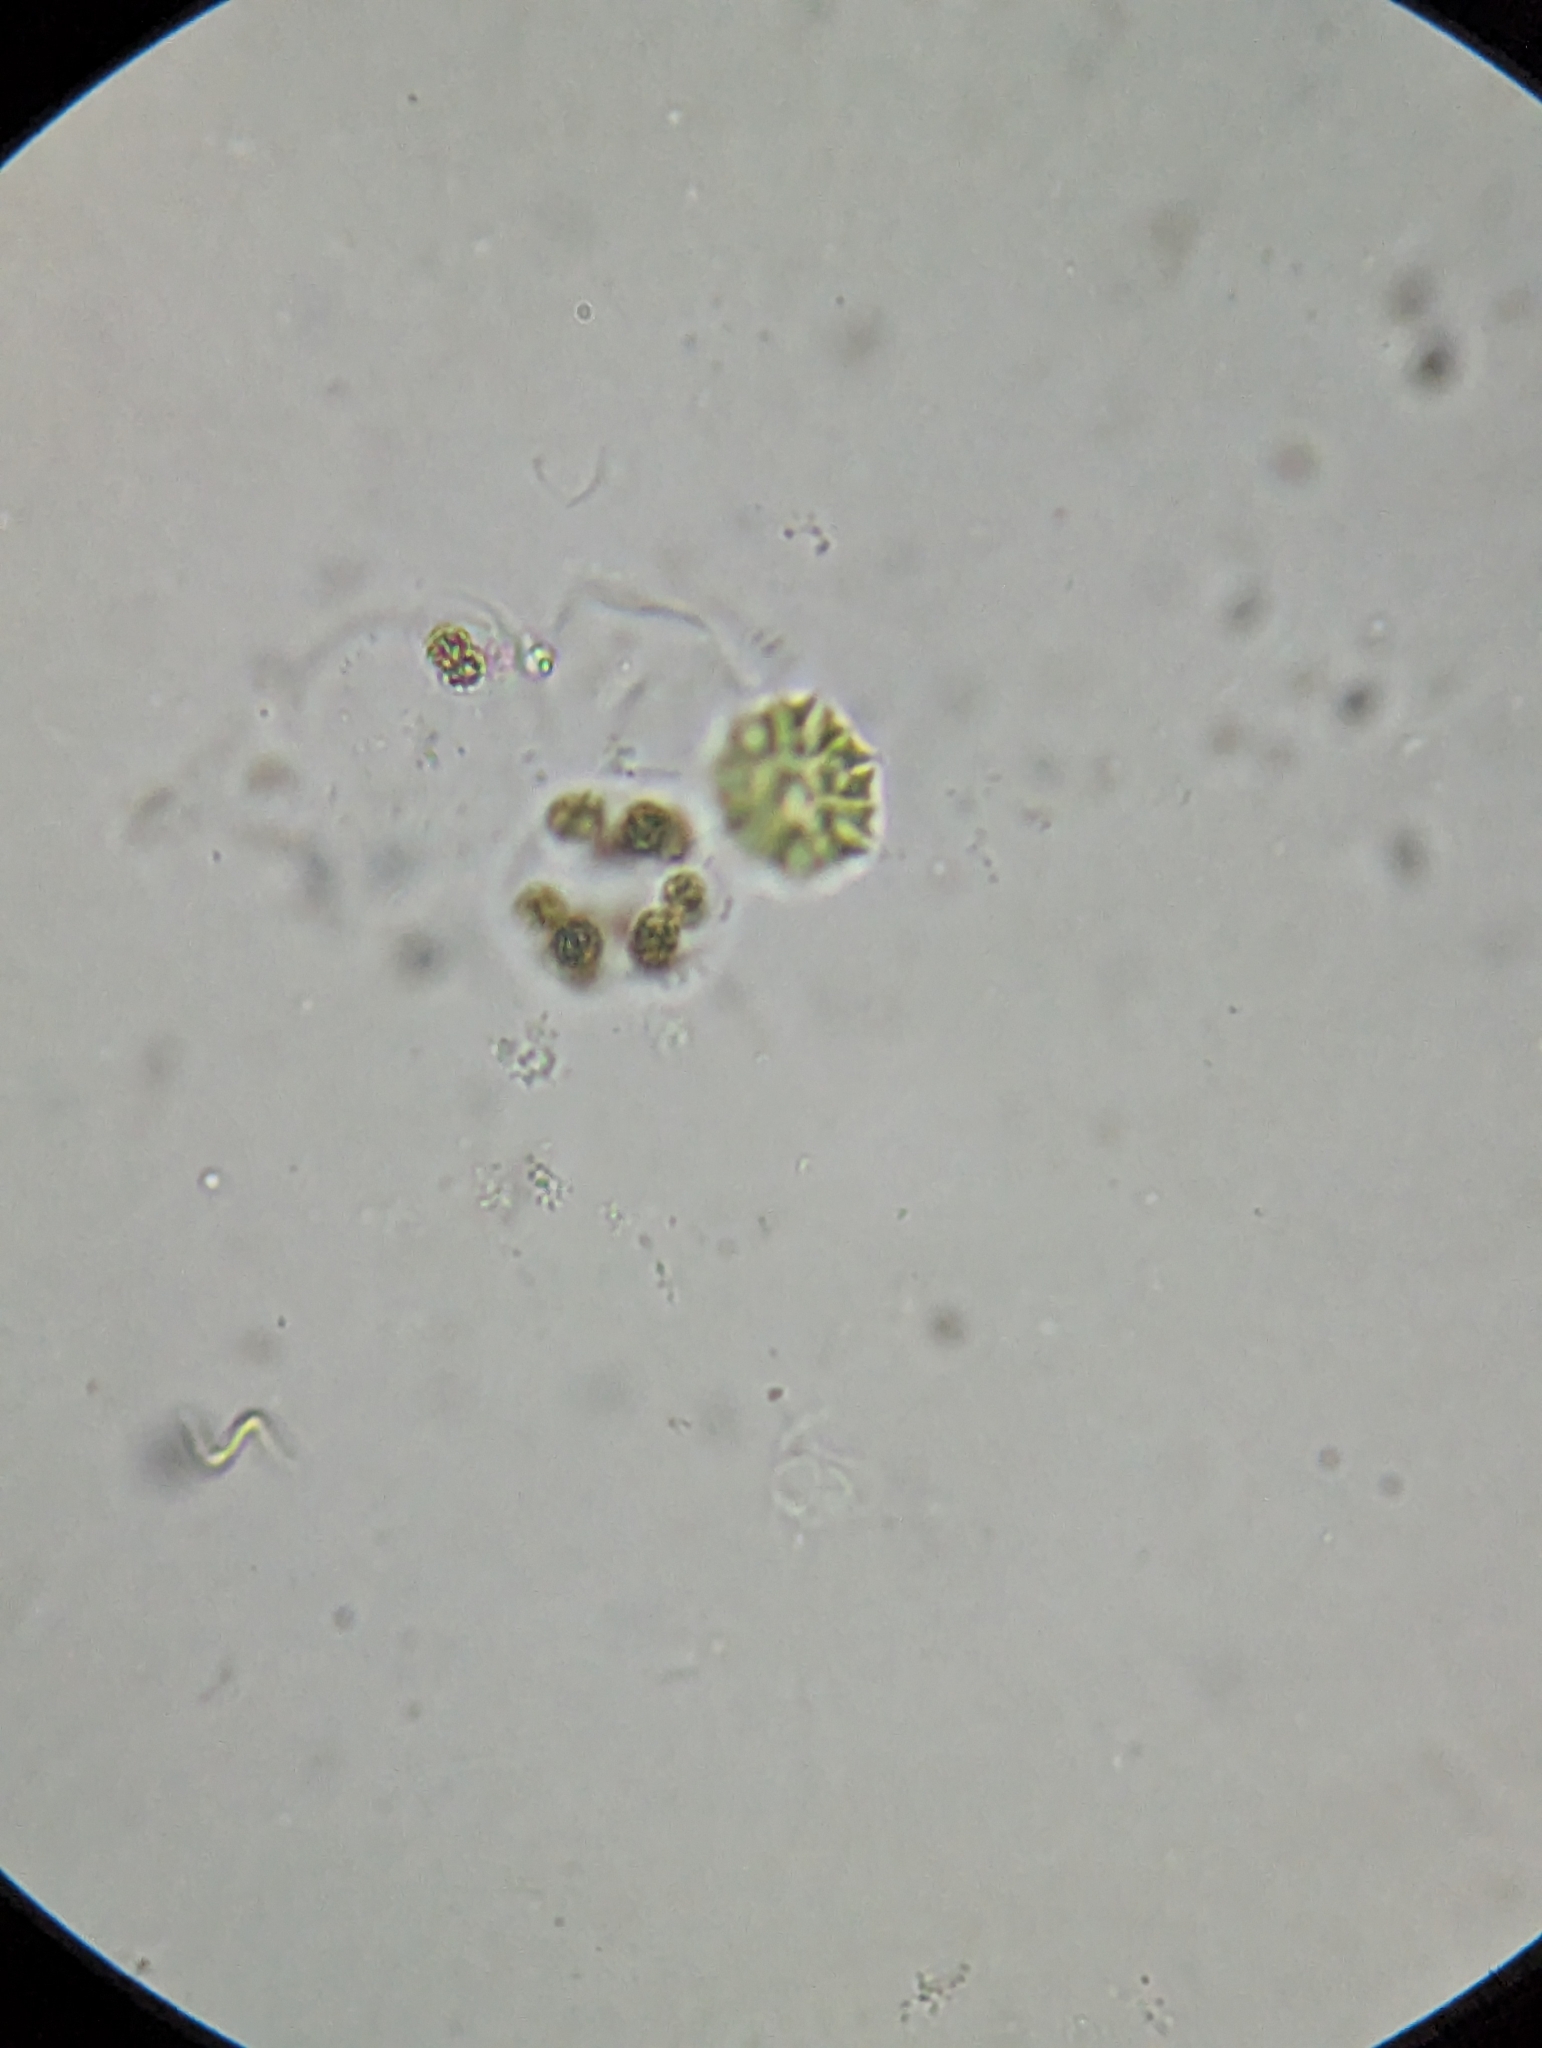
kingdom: Plantae
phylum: Chlorophyta
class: Chlorophyceae
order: Sphaeropleales
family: Hydrodictyaceae
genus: Stauridium
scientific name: Stauridium tetras
